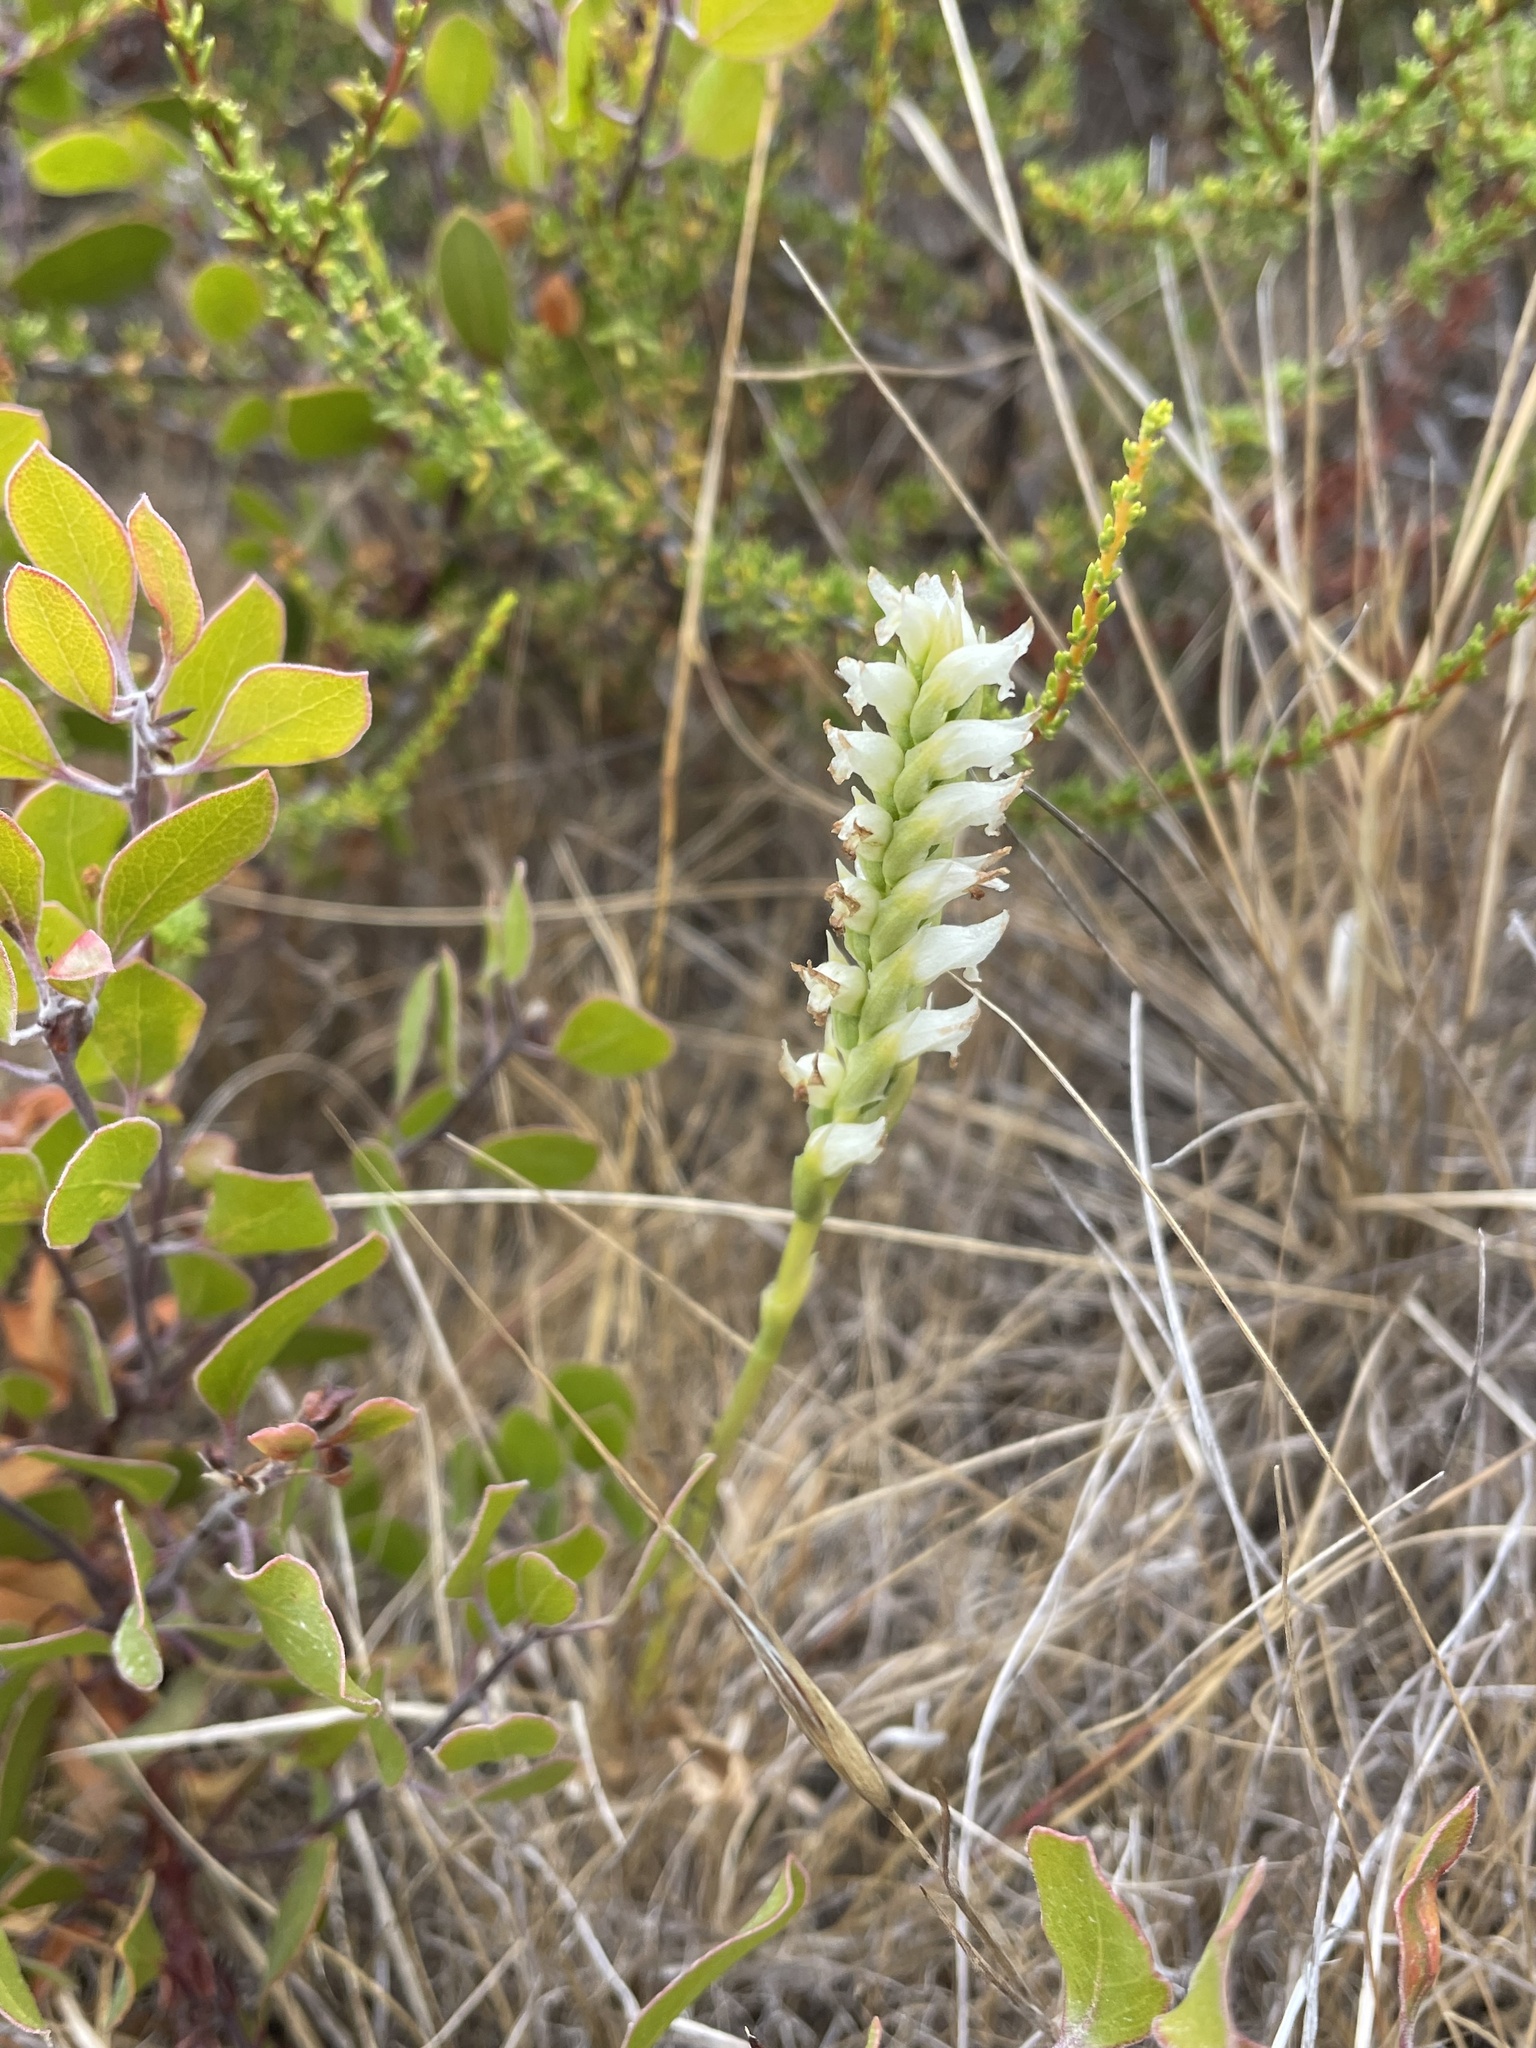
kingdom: Plantae
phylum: Tracheophyta
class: Liliopsida
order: Asparagales
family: Orchidaceae
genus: Spiranthes
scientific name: Spiranthes romanzoffiana
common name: Irish lady's-tresses
